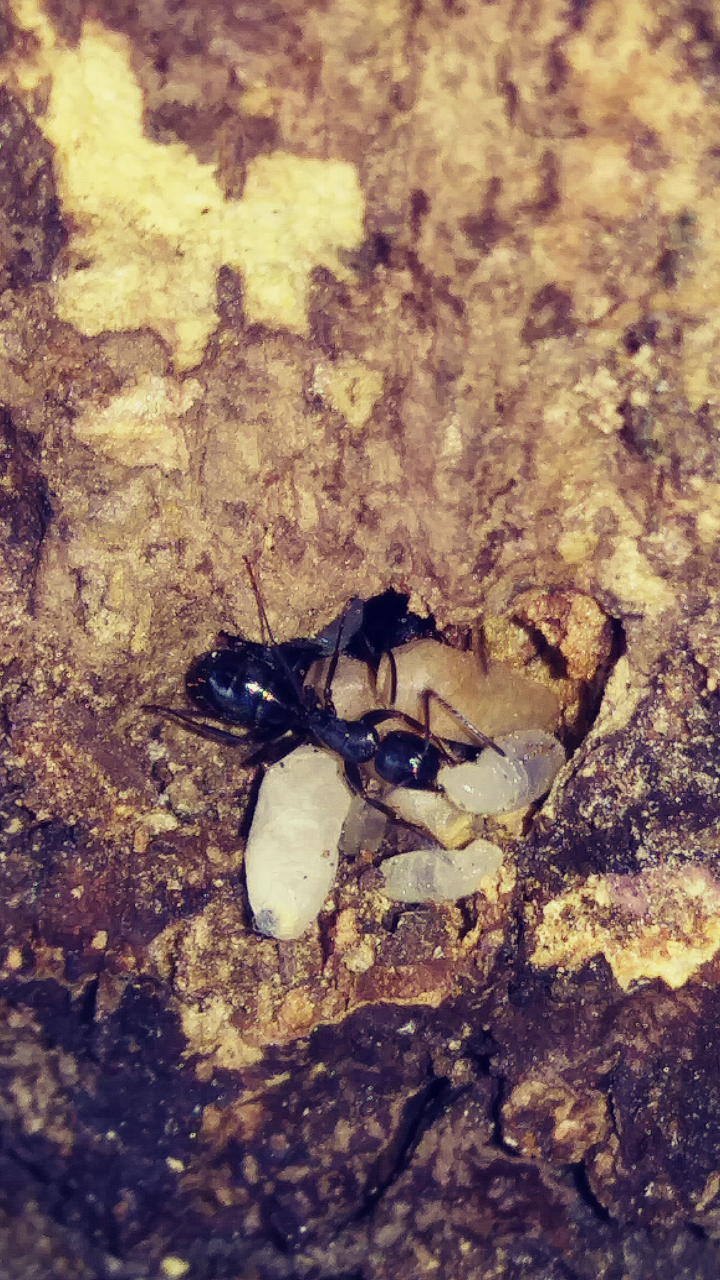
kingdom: Animalia
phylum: Arthropoda
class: Insecta
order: Hymenoptera
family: Formicidae
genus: Camponotus
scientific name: Camponotus pennsylvanicus
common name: Black carpenter ant
